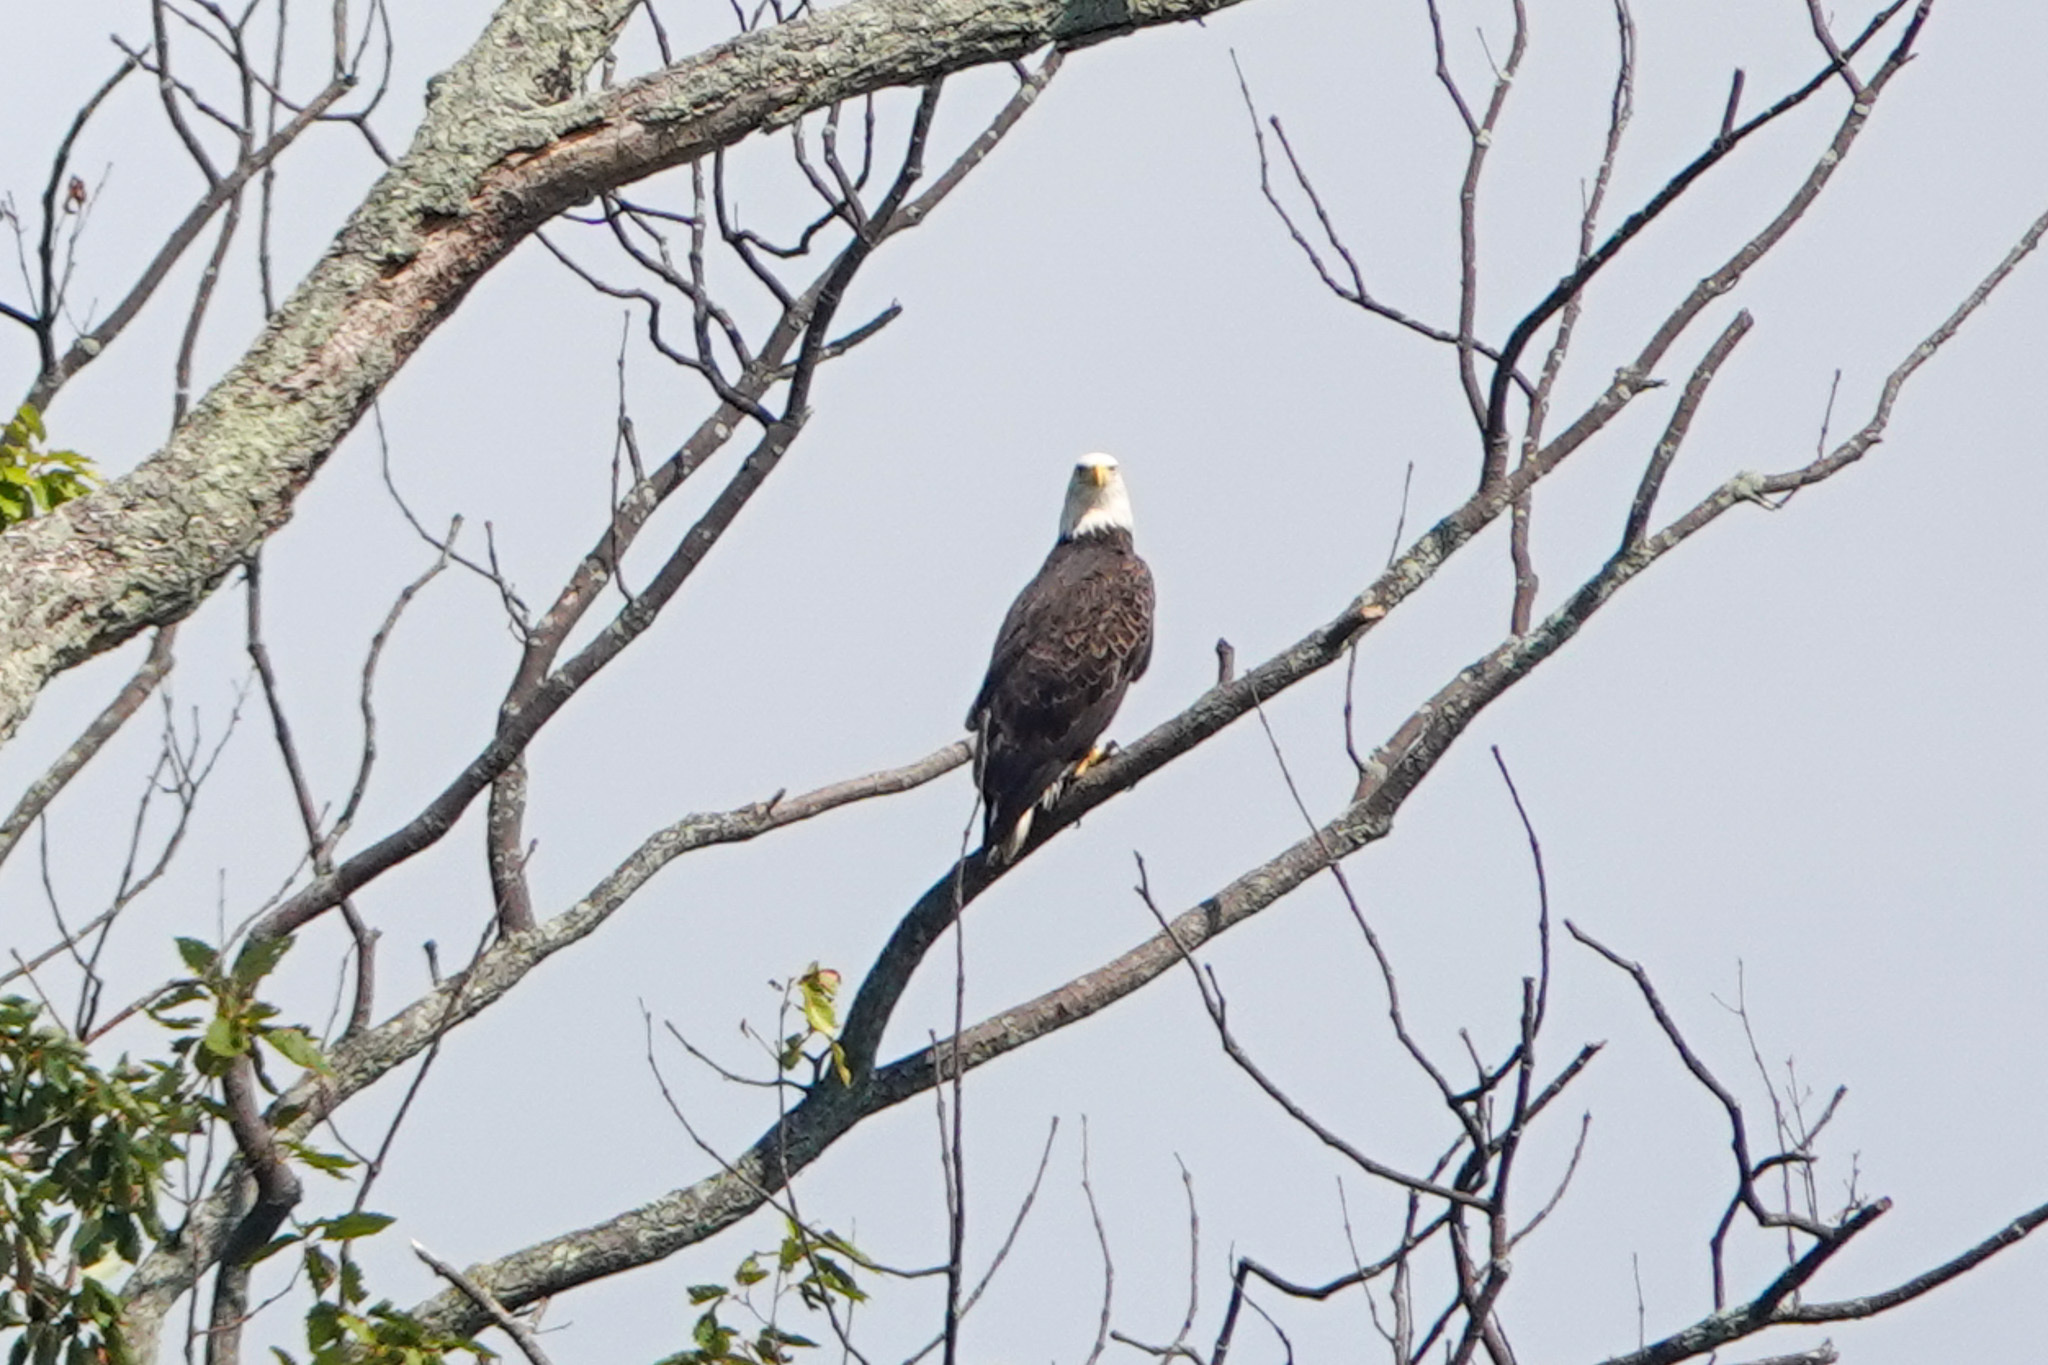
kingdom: Animalia
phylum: Chordata
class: Aves
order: Accipitriformes
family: Accipitridae
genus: Haliaeetus
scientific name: Haliaeetus leucocephalus
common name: Bald eagle
